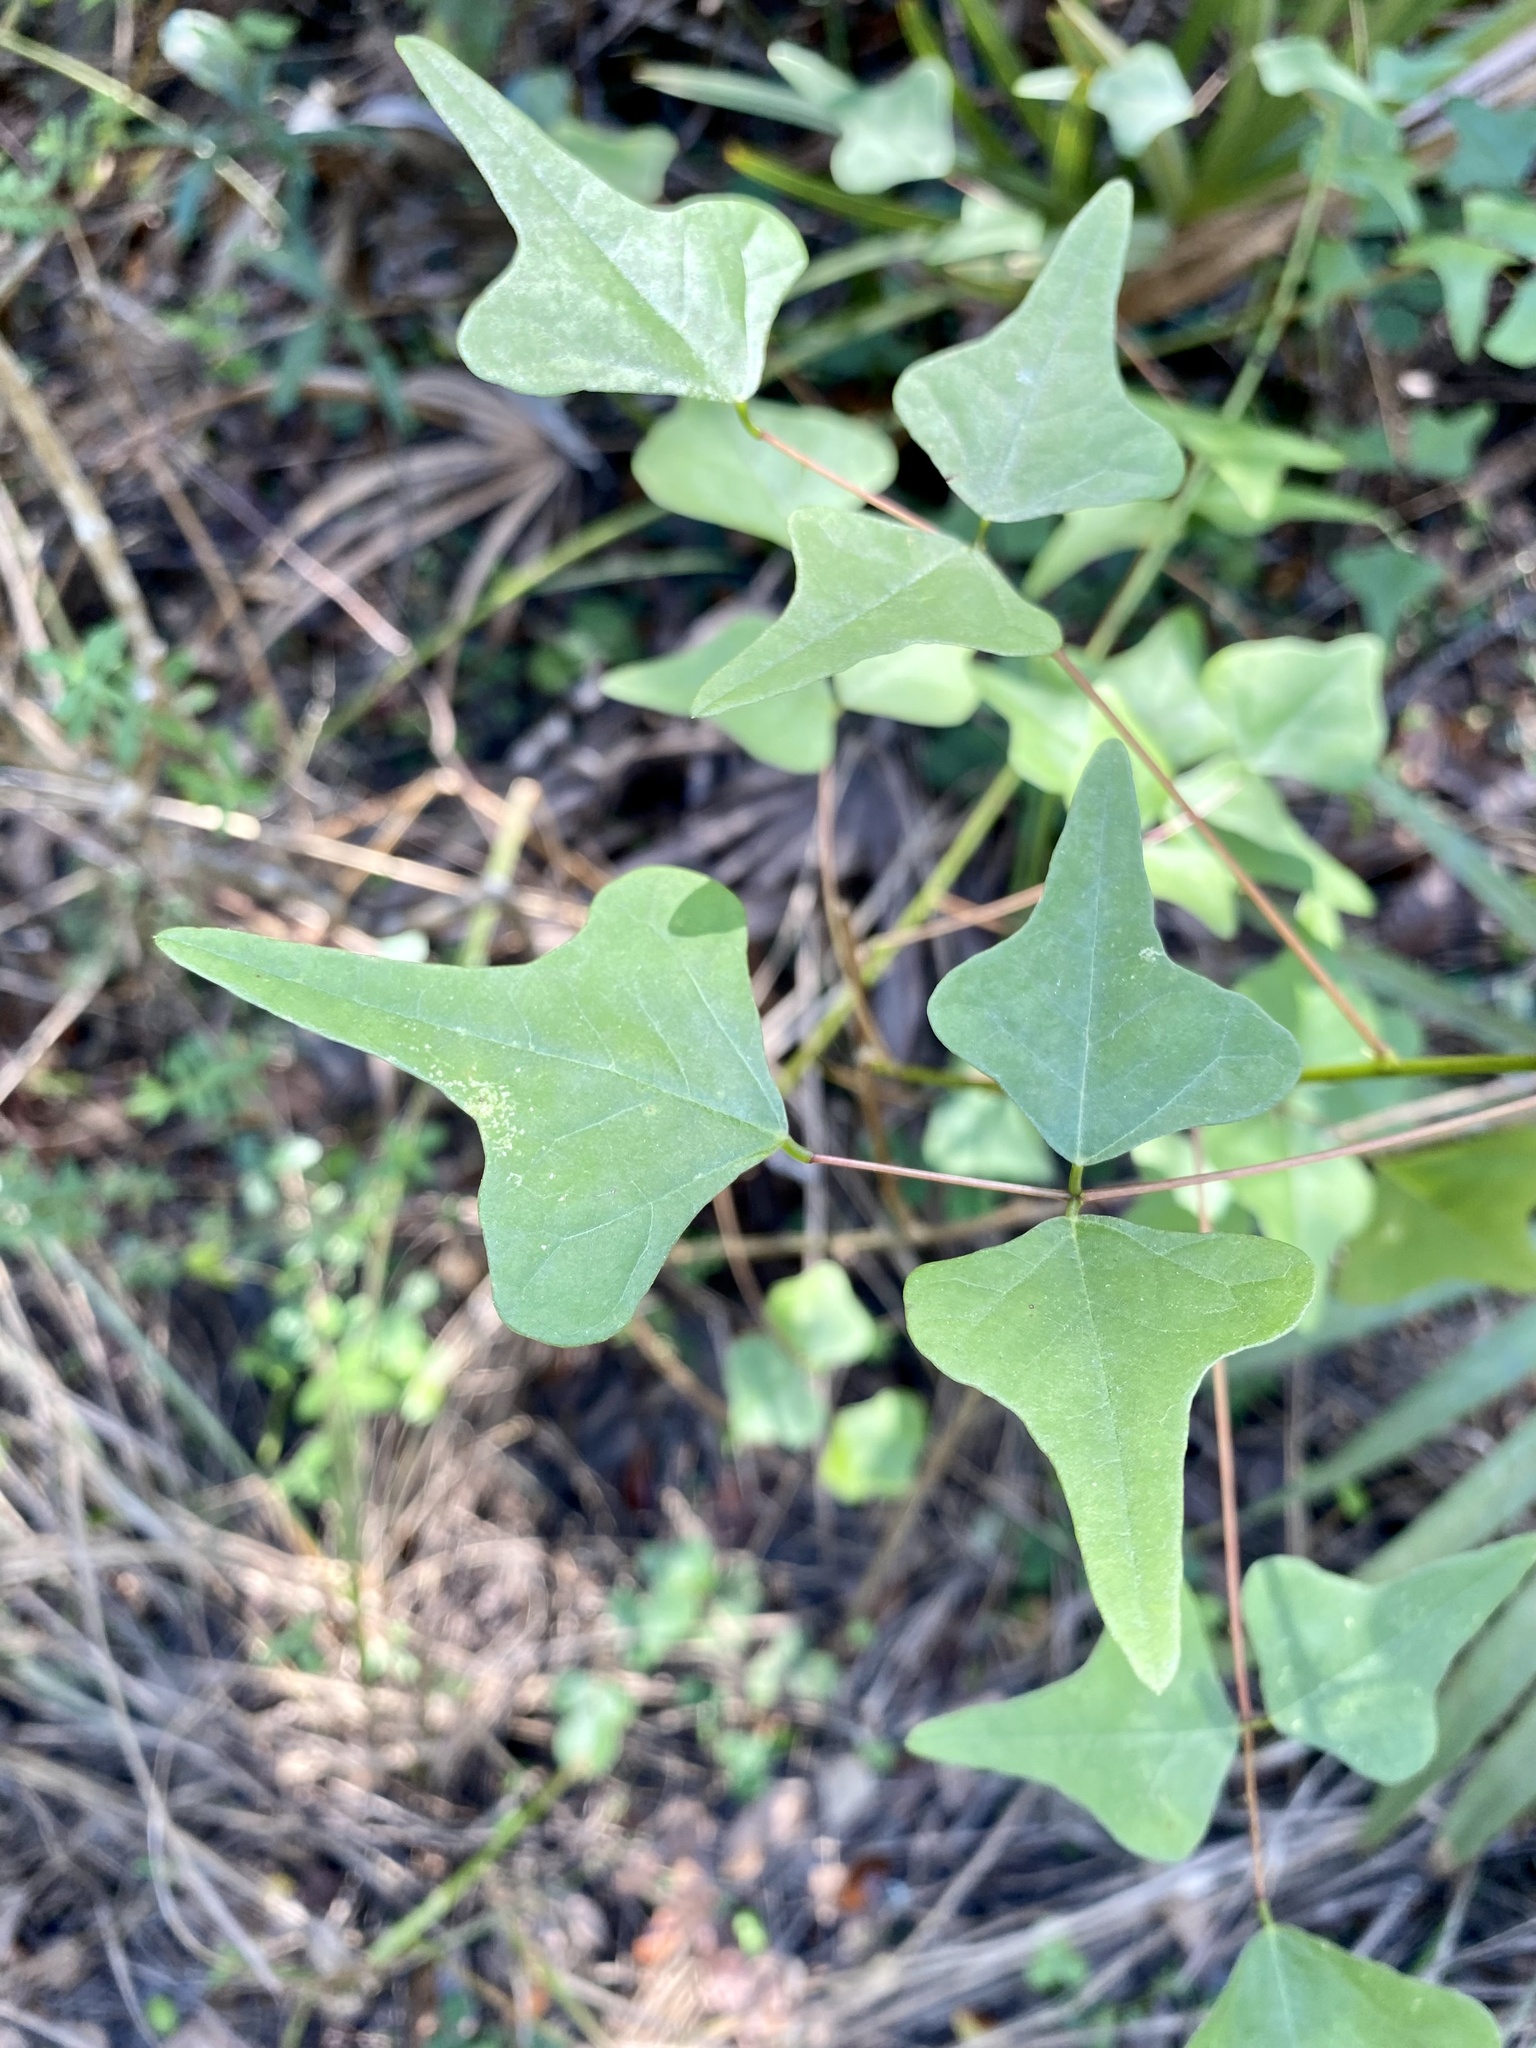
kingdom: Plantae
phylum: Tracheophyta
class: Magnoliopsida
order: Fabales
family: Fabaceae
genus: Erythrina
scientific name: Erythrina herbacea
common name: Coral-bean
